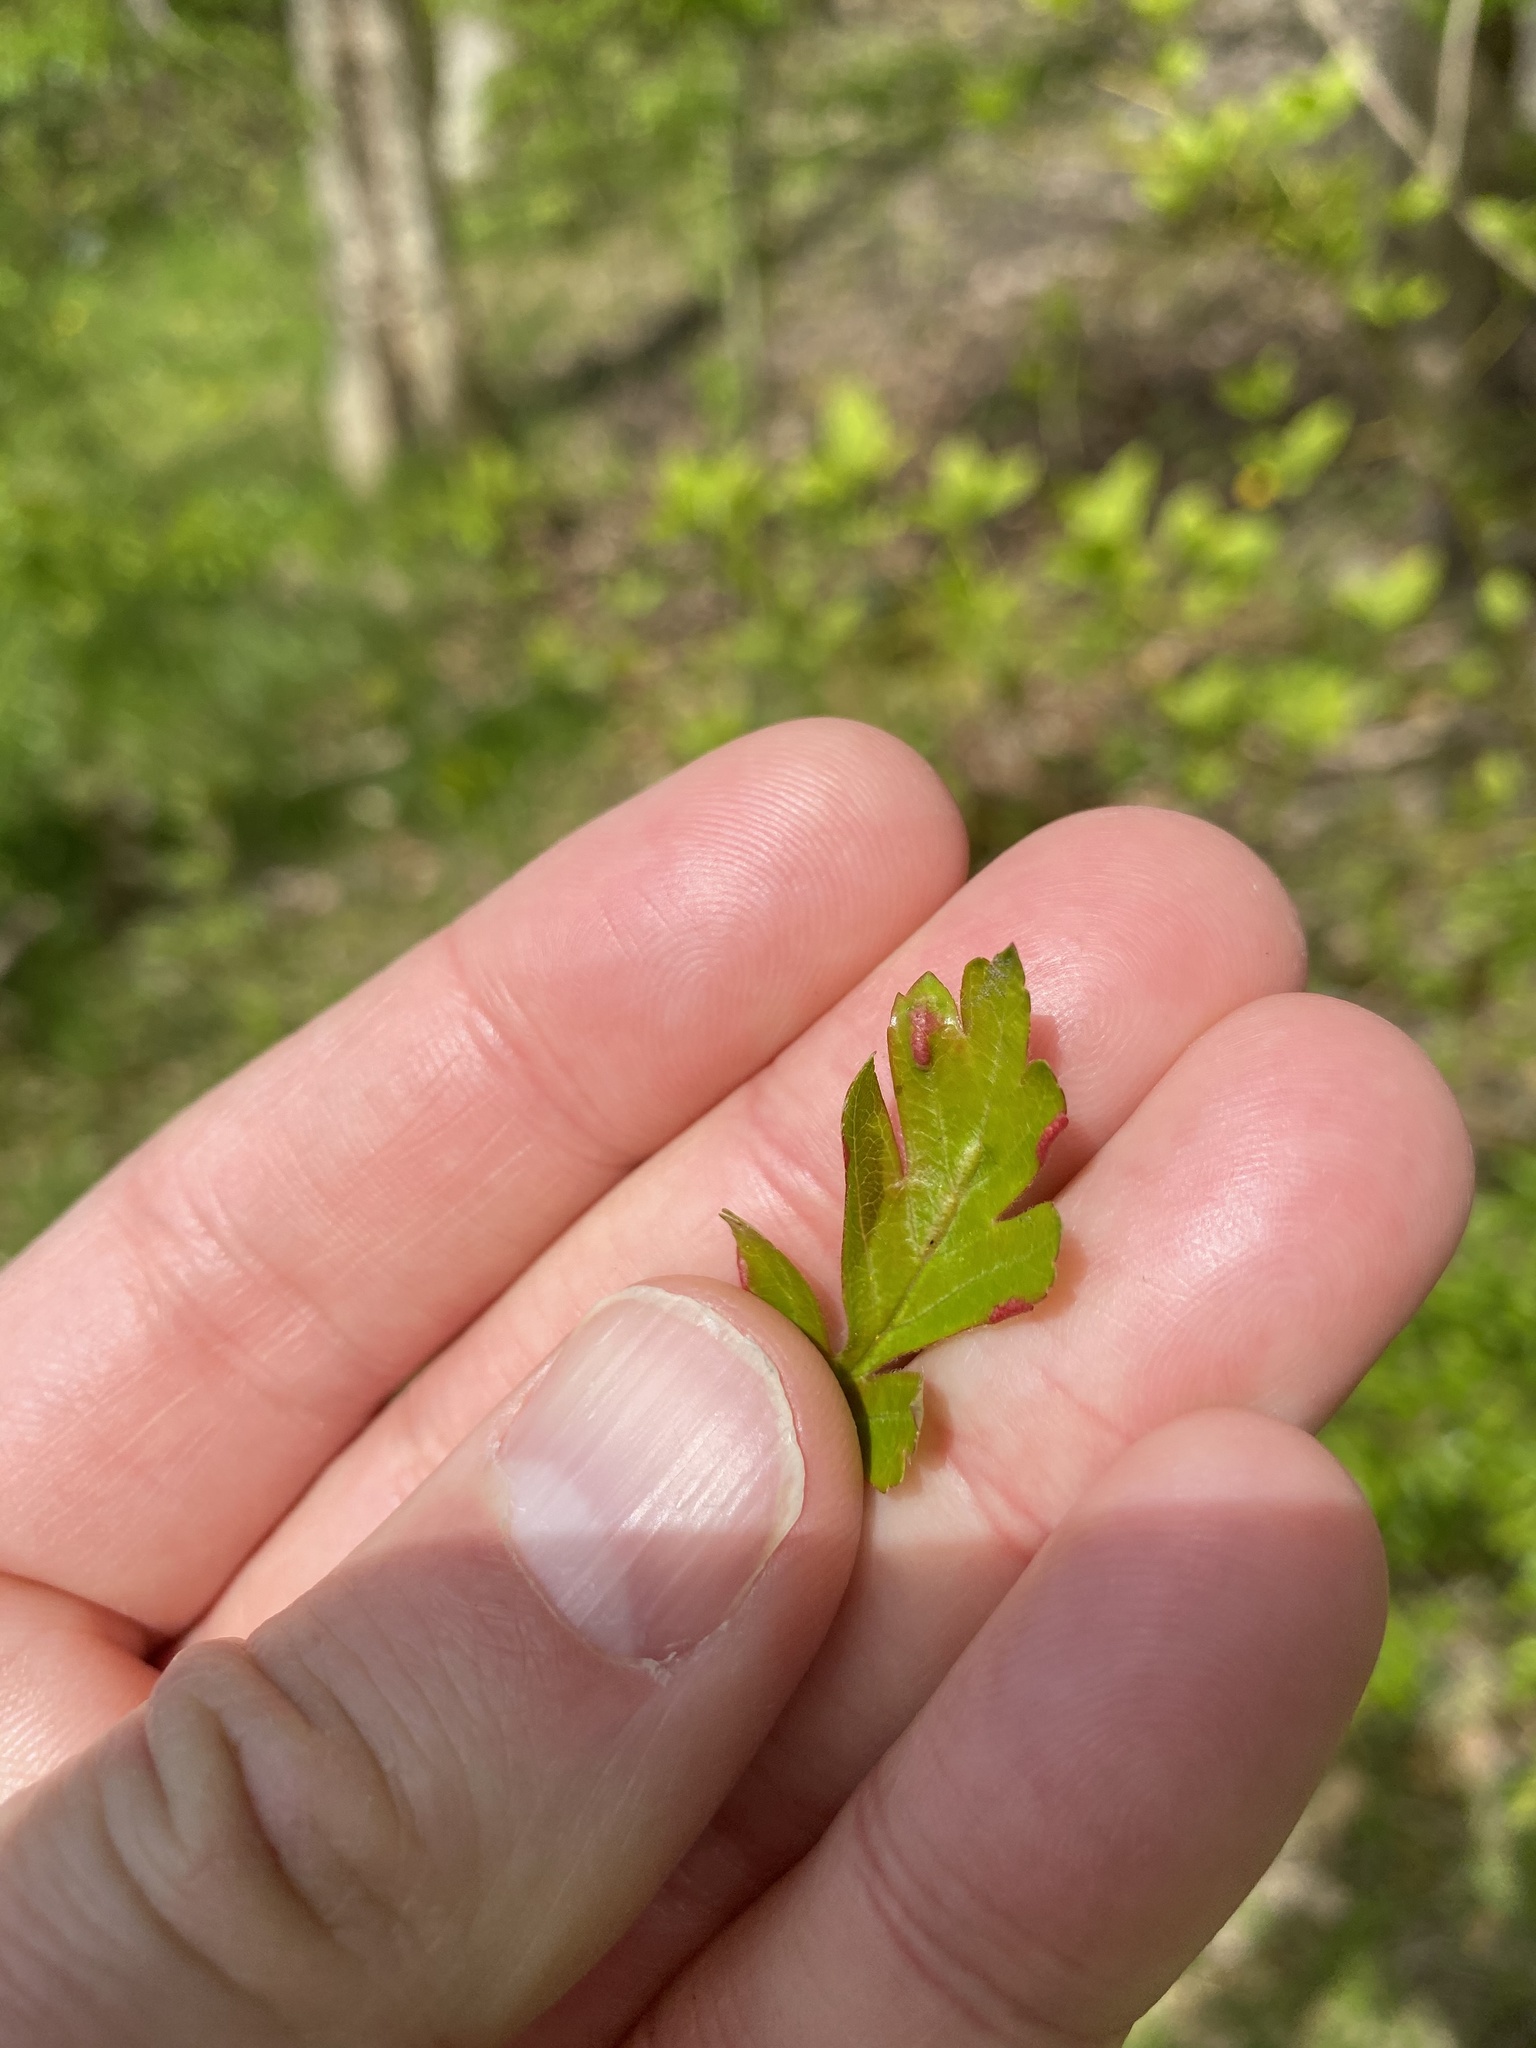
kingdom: Plantae
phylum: Tracheophyta
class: Magnoliopsida
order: Rosales
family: Rosaceae
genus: Crataegus
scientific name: Crataegus monogyna
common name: Hawthorn
